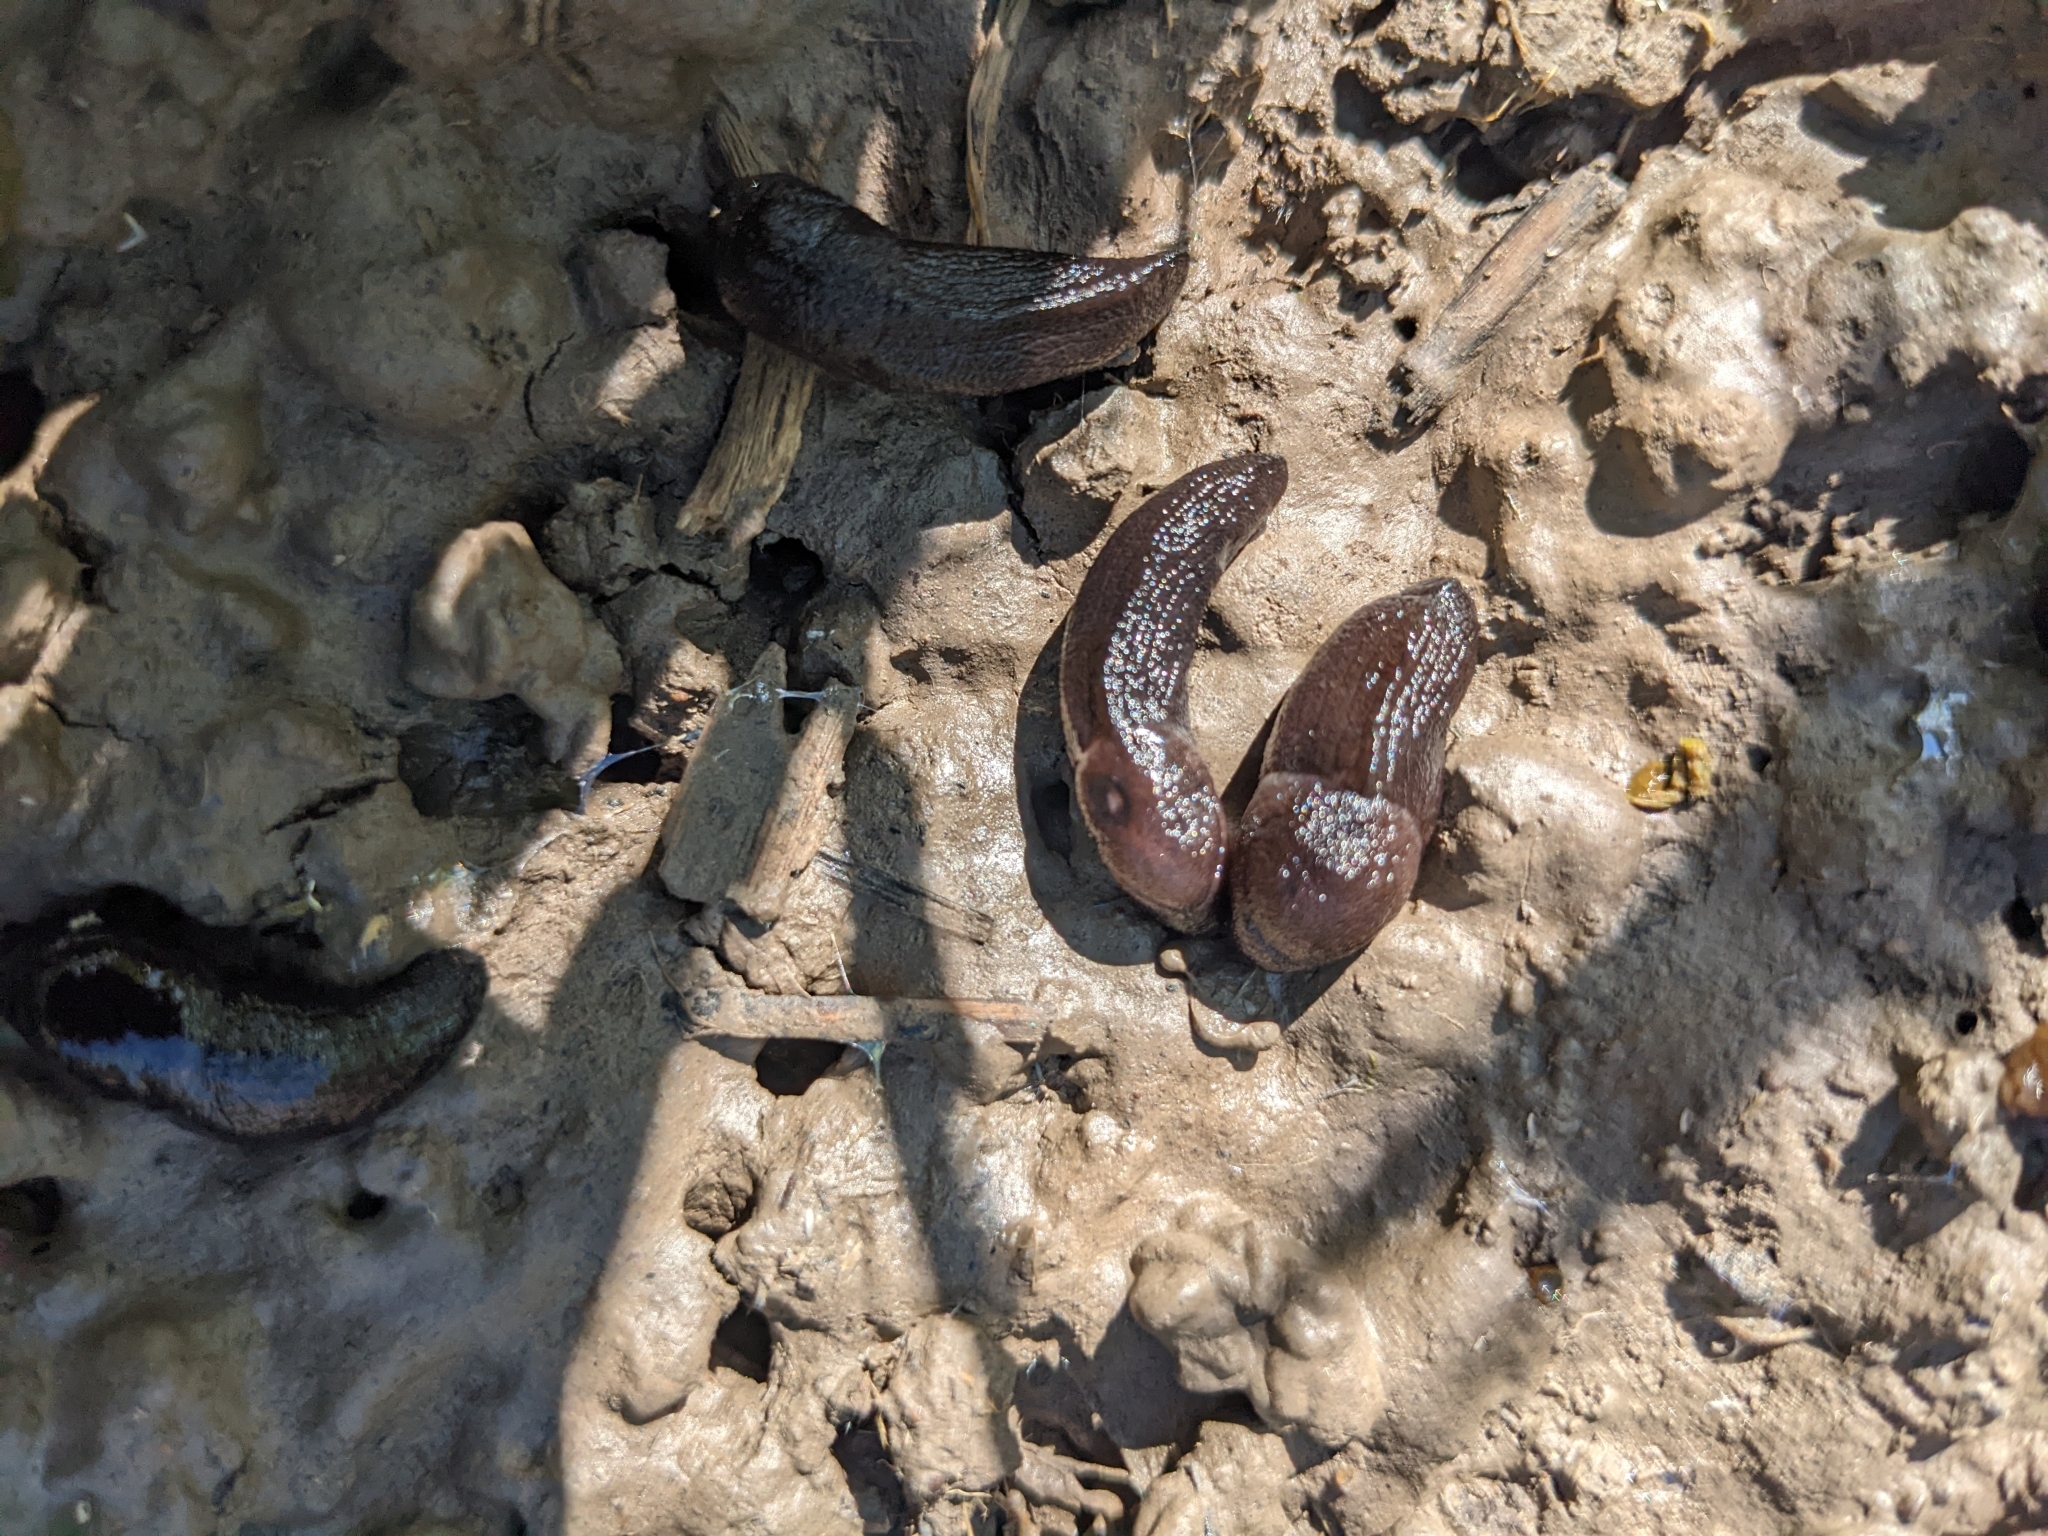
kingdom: Animalia
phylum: Mollusca
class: Gastropoda
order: Stylommatophora
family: Milacidae
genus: Milax
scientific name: Milax gagates
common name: Greenhouse slug
